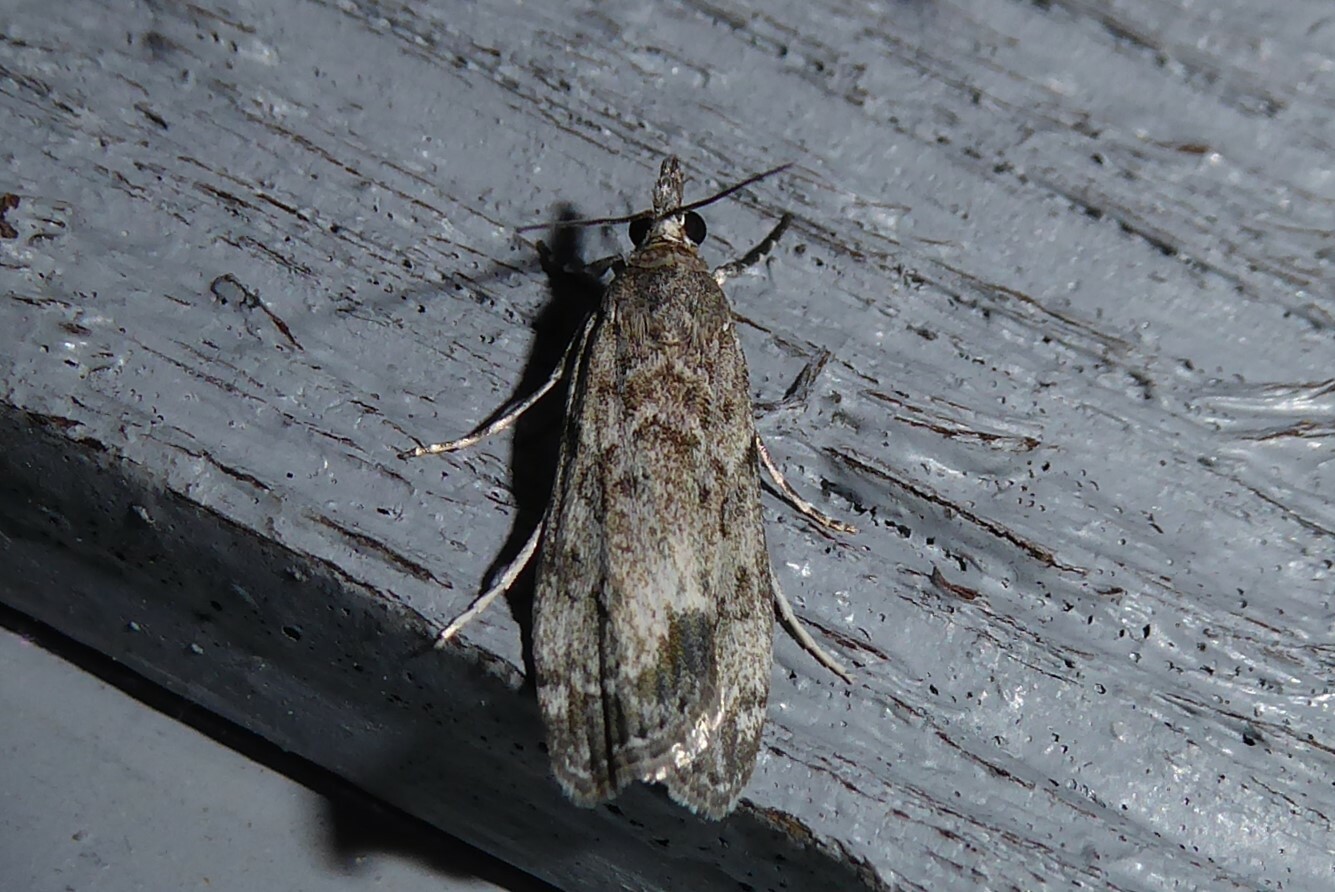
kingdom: Animalia
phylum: Arthropoda
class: Insecta
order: Lepidoptera
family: Crambidae
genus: Eudonia
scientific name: Eudonia rakaiensis
